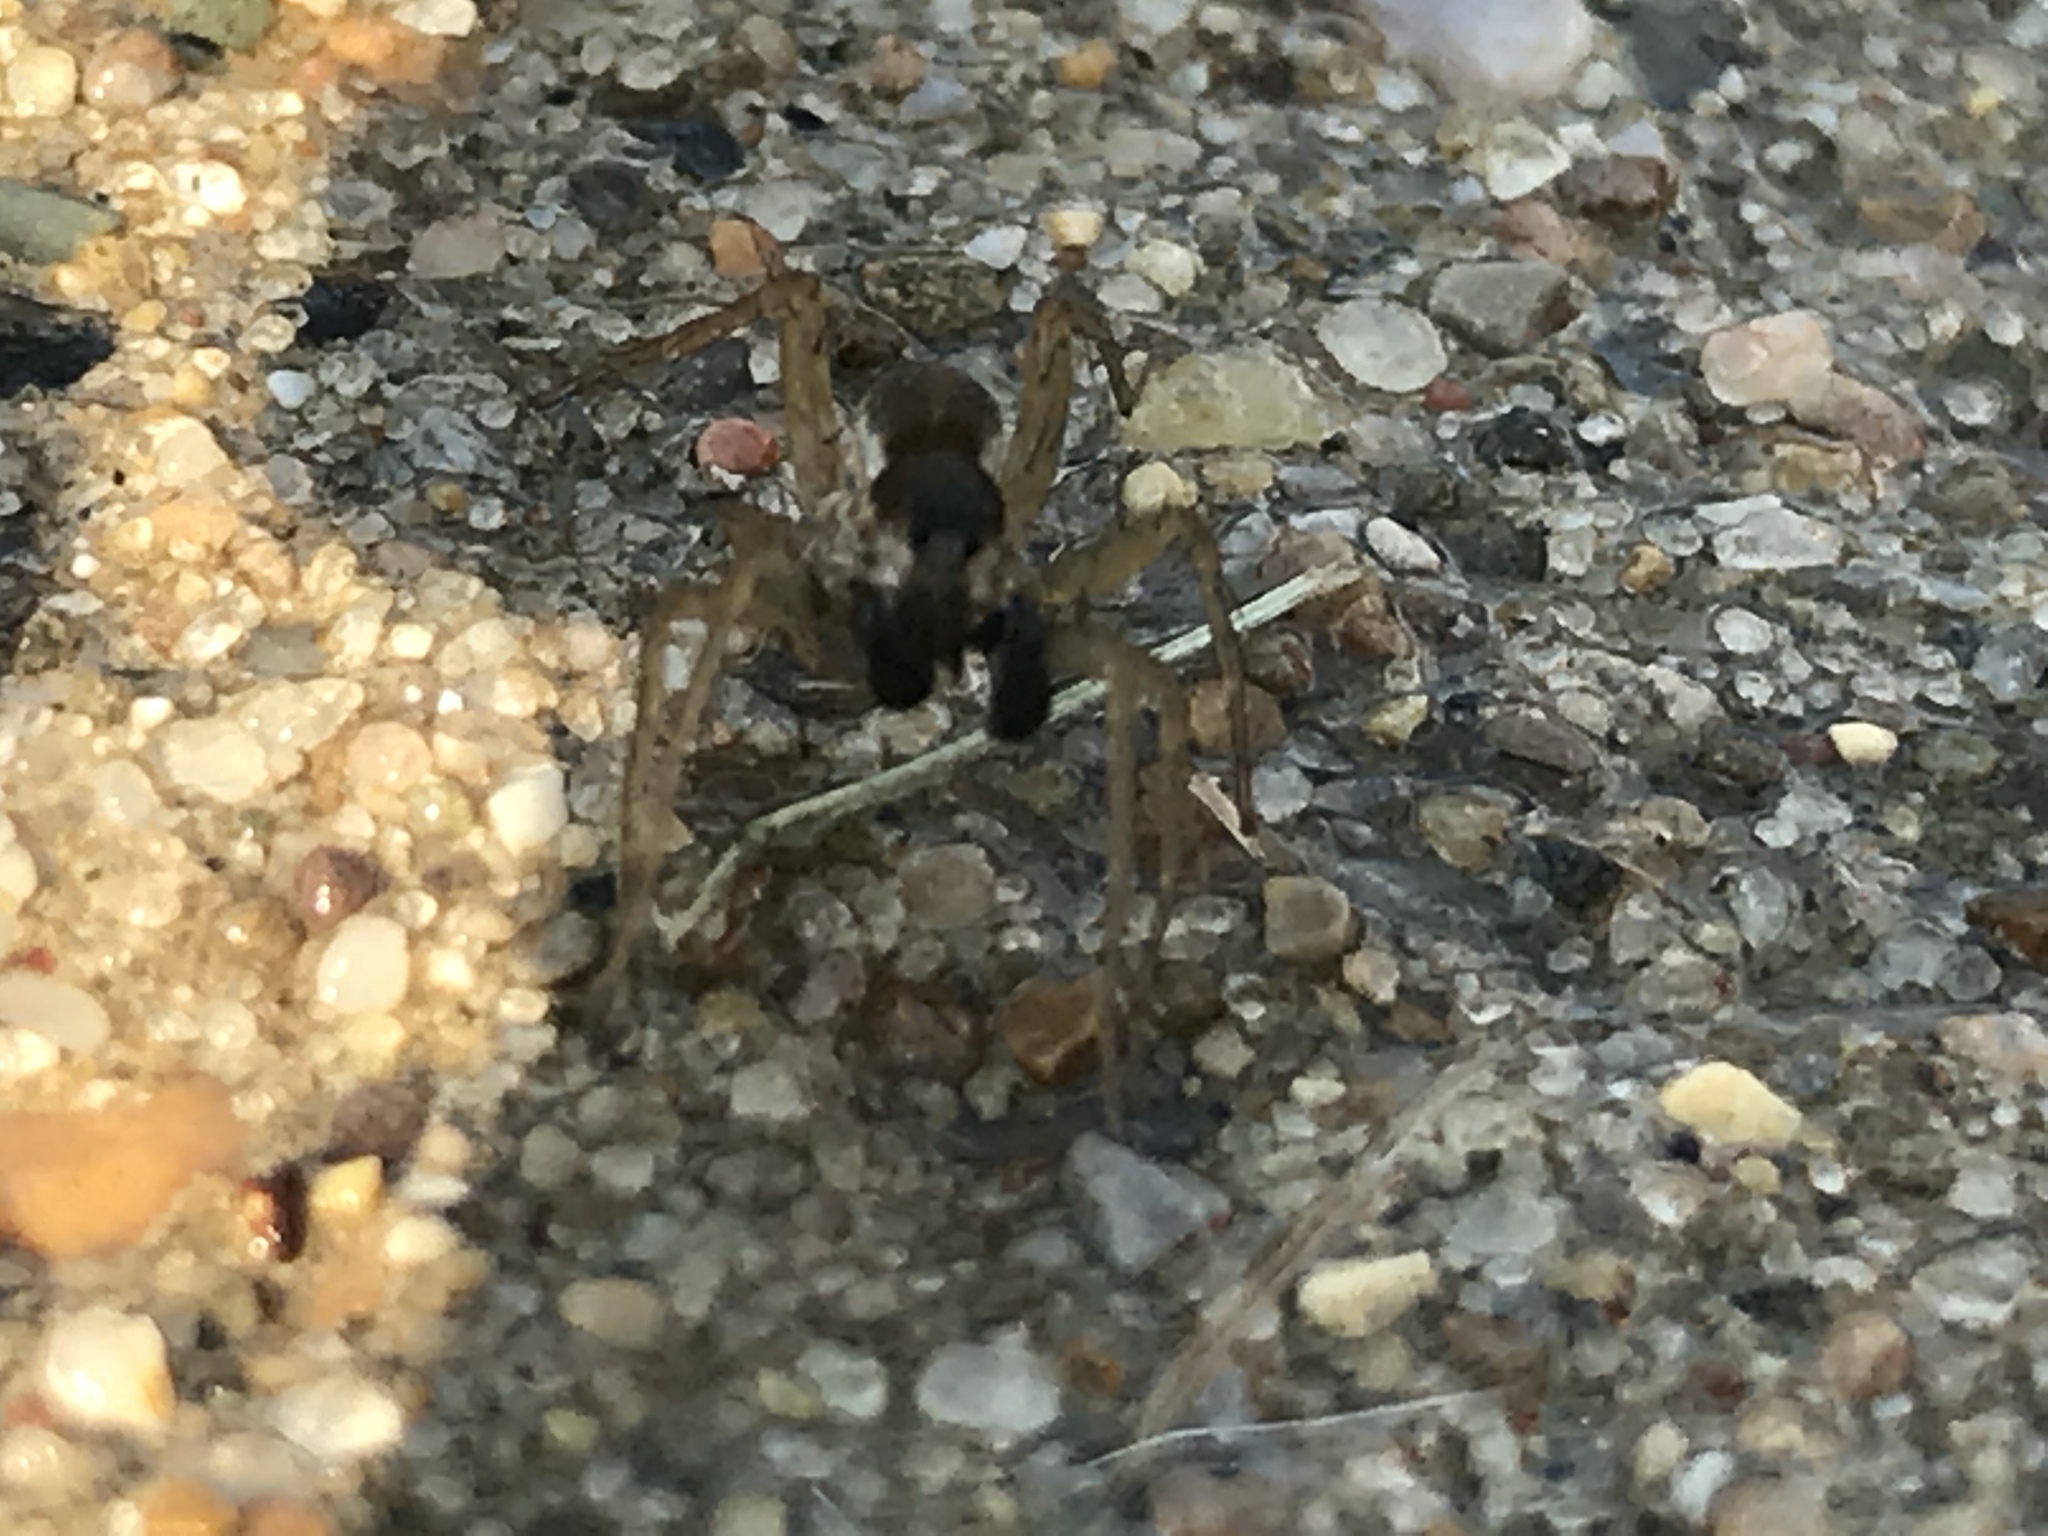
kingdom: Animalia
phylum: Arthropoda
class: Arachnida
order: Araneae
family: Lycosidae
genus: Pardosa
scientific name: Pardosa
